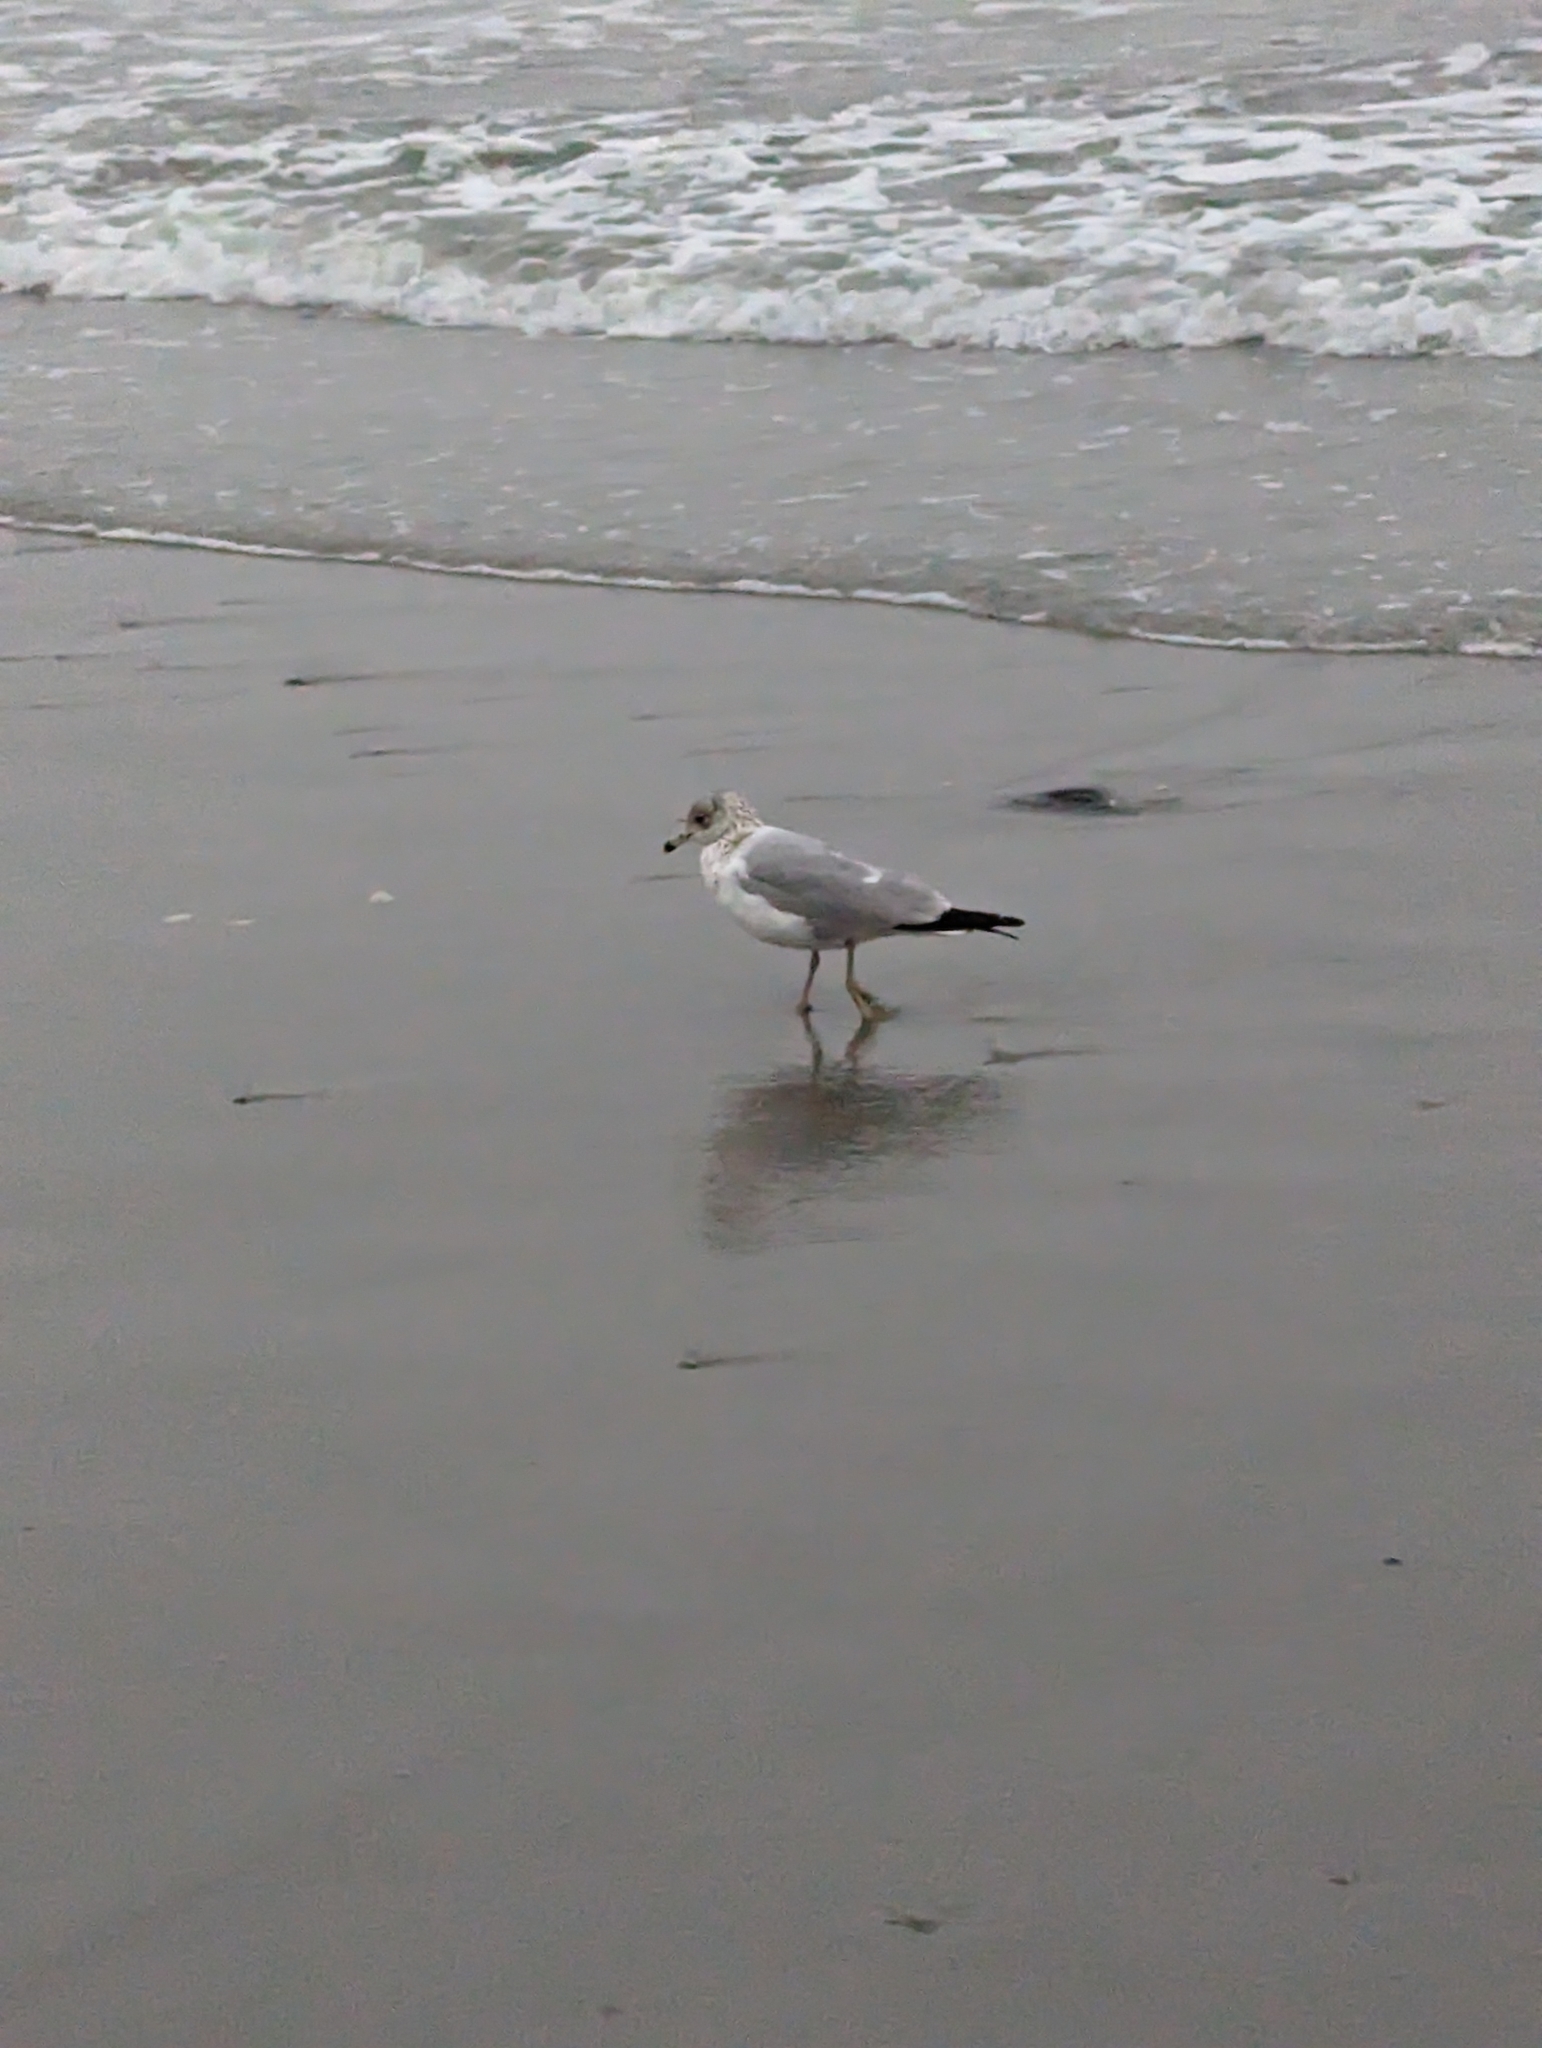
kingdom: Animalia
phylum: Chordata
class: Aves
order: Charadriiformes
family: Laridae
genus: Larus
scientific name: Larus delawarensis
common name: Ring-billed gull
